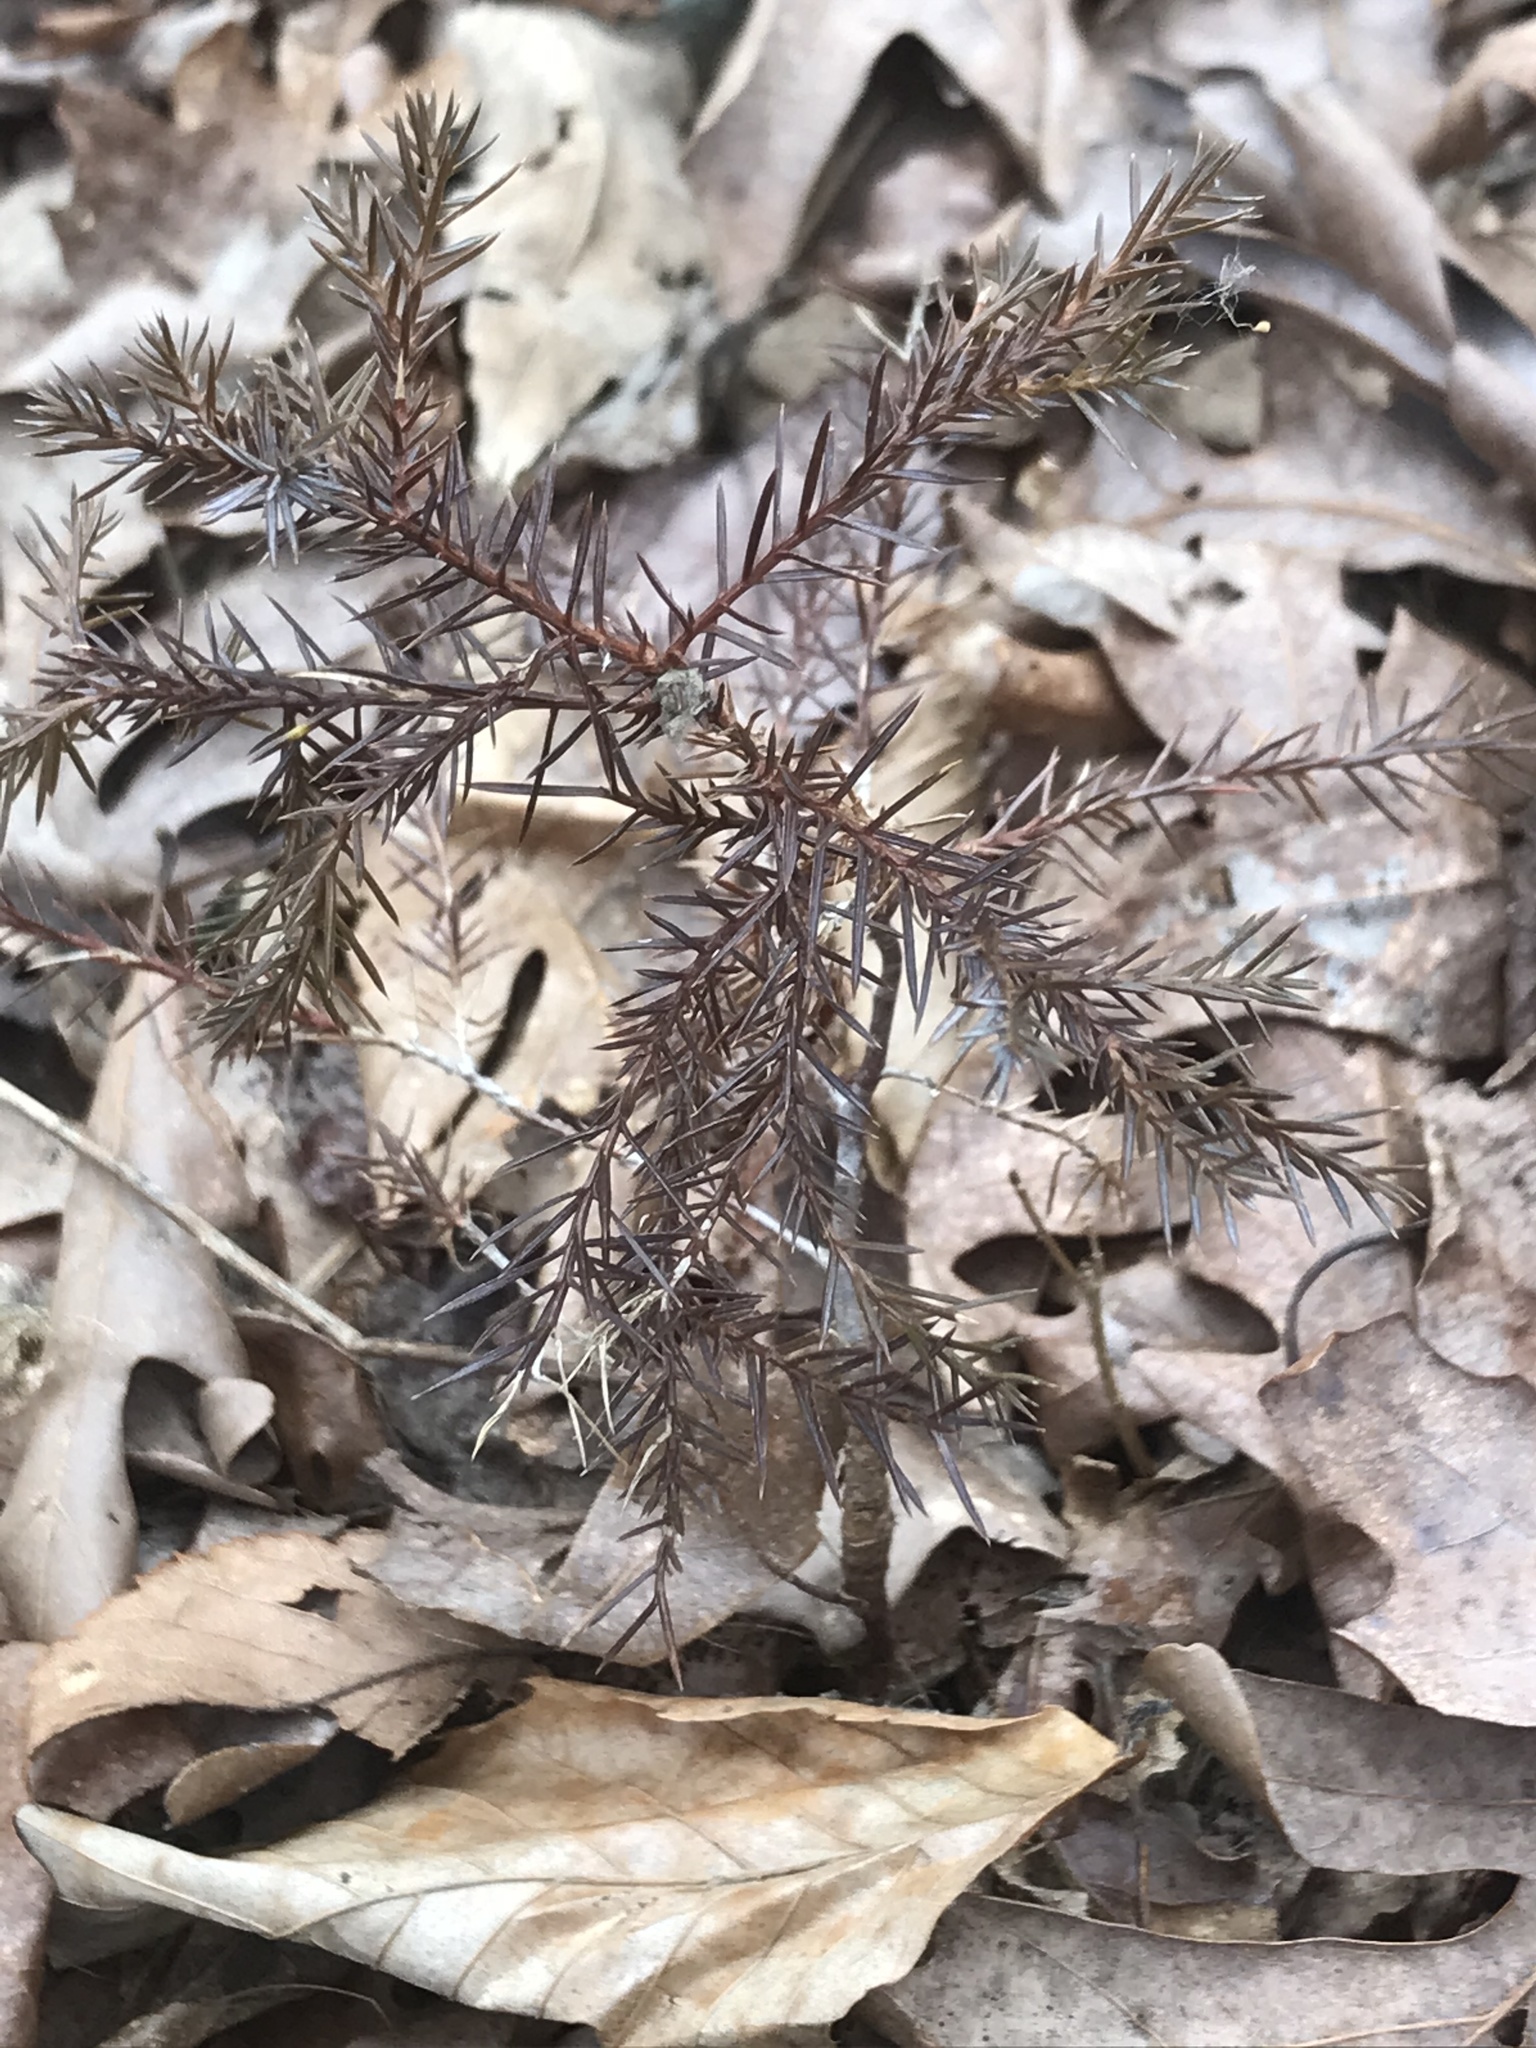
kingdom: Plantae
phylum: Tracheophyta
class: Pinopsida
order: Pinales
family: Cupressaceae
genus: Juniperus
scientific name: Juniperus virginiana
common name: Red juniper
